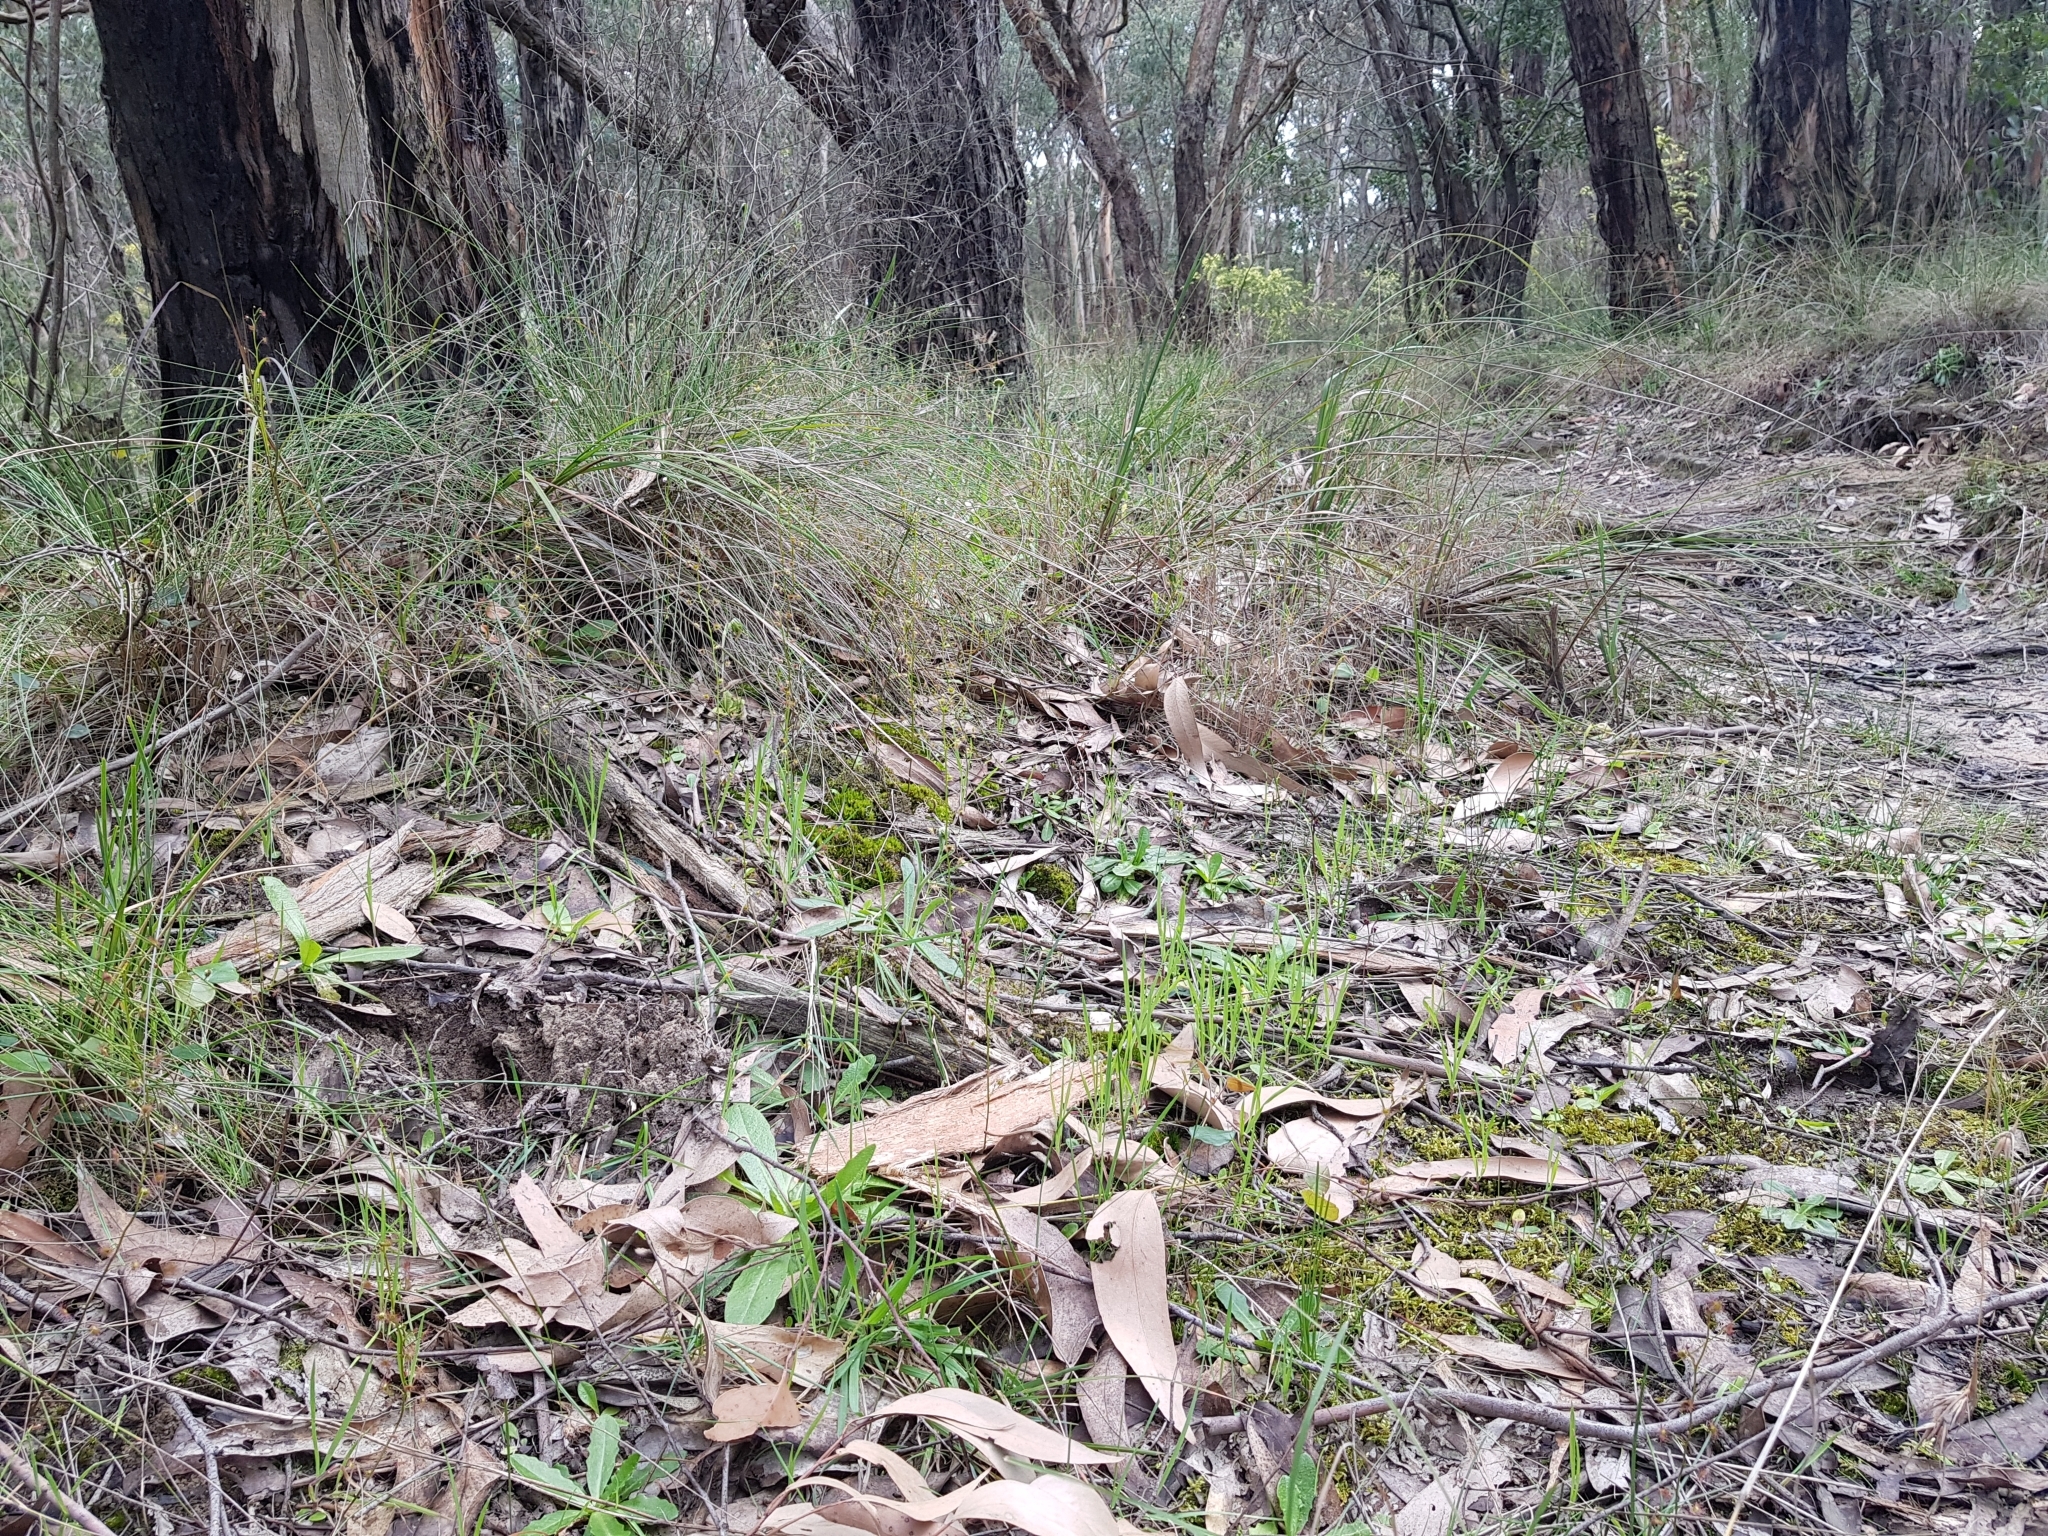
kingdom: Plantae
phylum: Tracheophyta
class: Liliopsida
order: Asparagales
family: Orchidaceae
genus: Acianthus
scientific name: Acianthus caudatus
